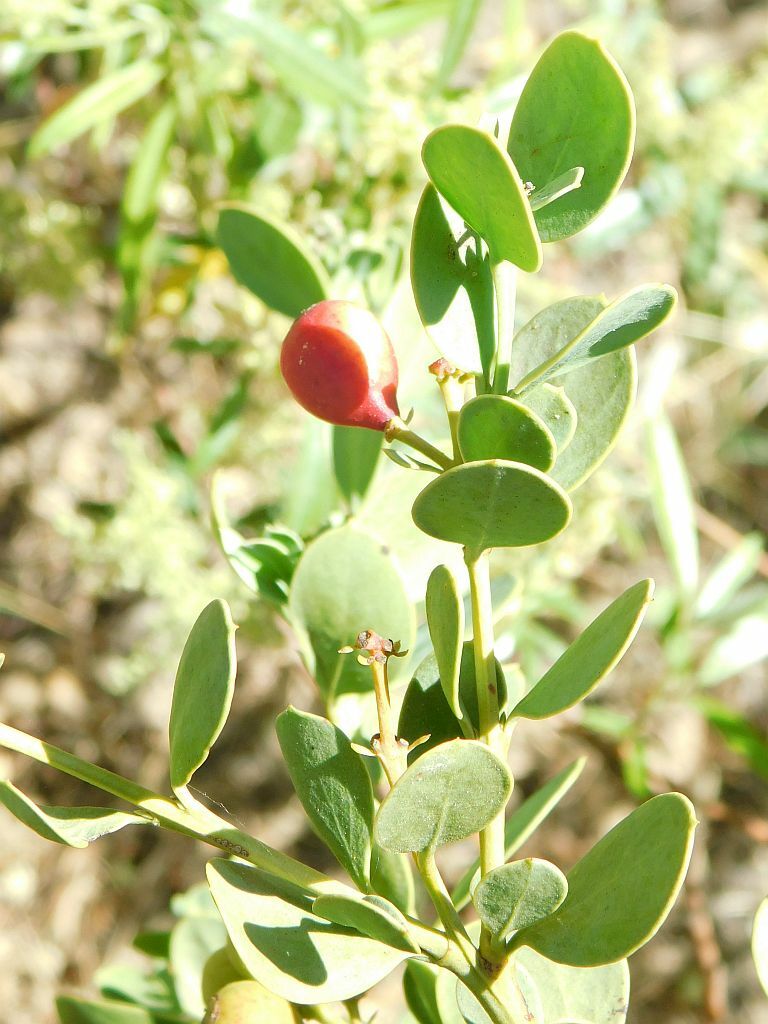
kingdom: Plantae
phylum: Tracheophyta
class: Magnoliopsida
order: Santalales
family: Santalaceae
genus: Osyris
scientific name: Osyris compressa
